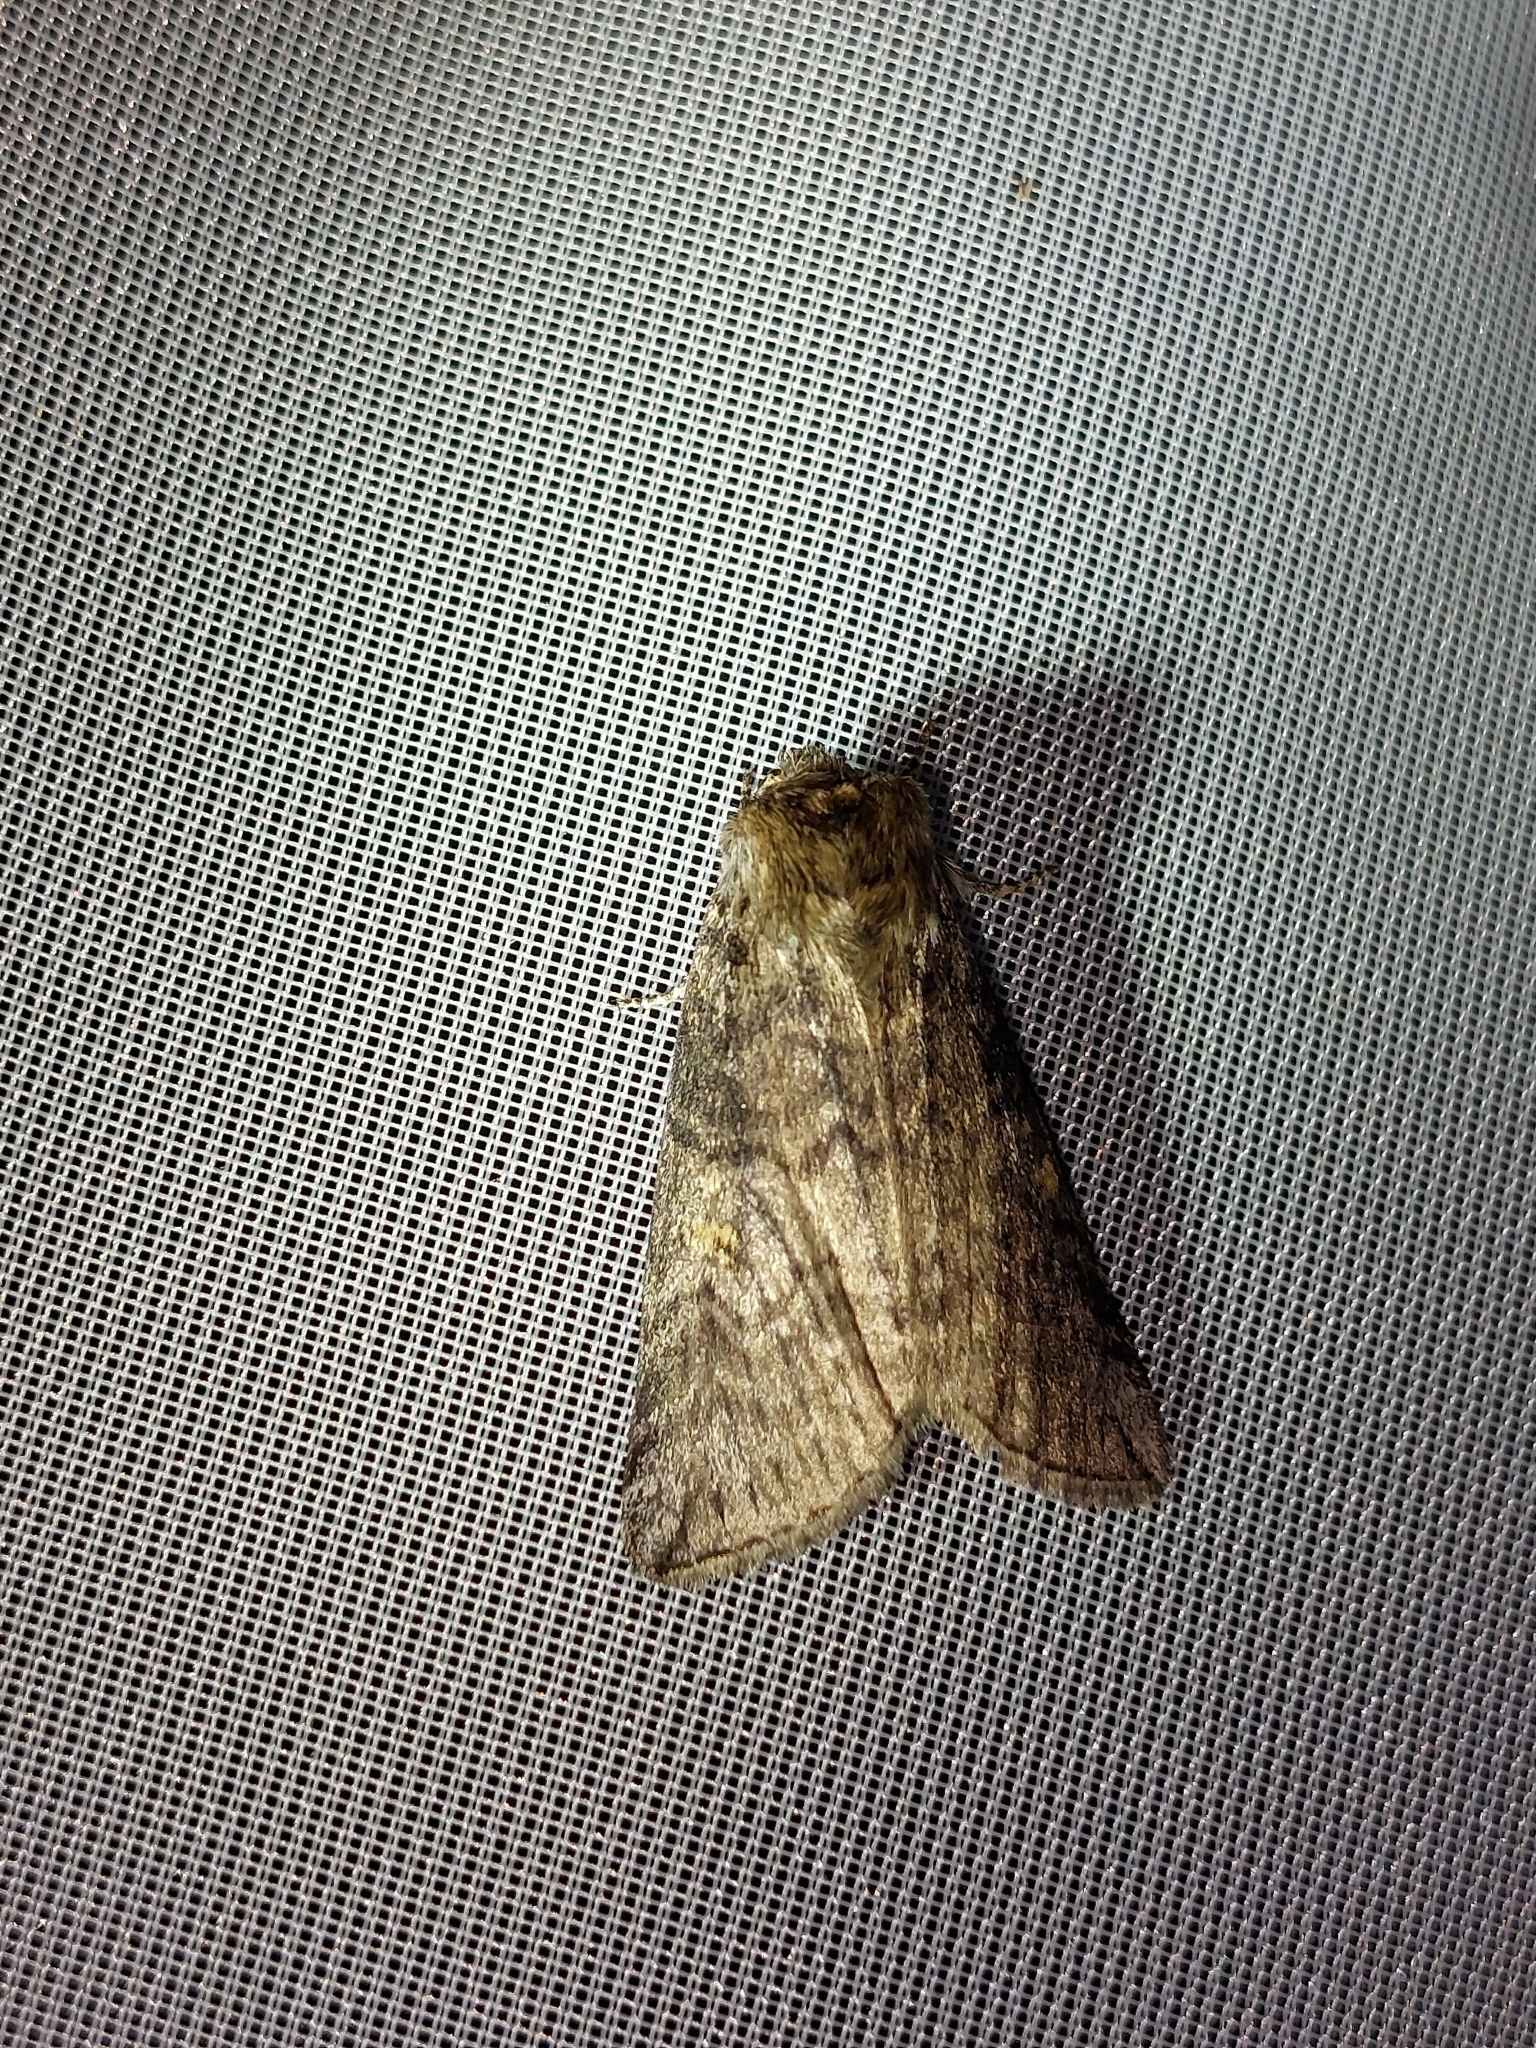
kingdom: Animalia
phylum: Arthropoda
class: Insecta
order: Lepidoptera
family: Drepanidae
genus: Tethea
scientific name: Tethea or
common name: Poplar lutestring
